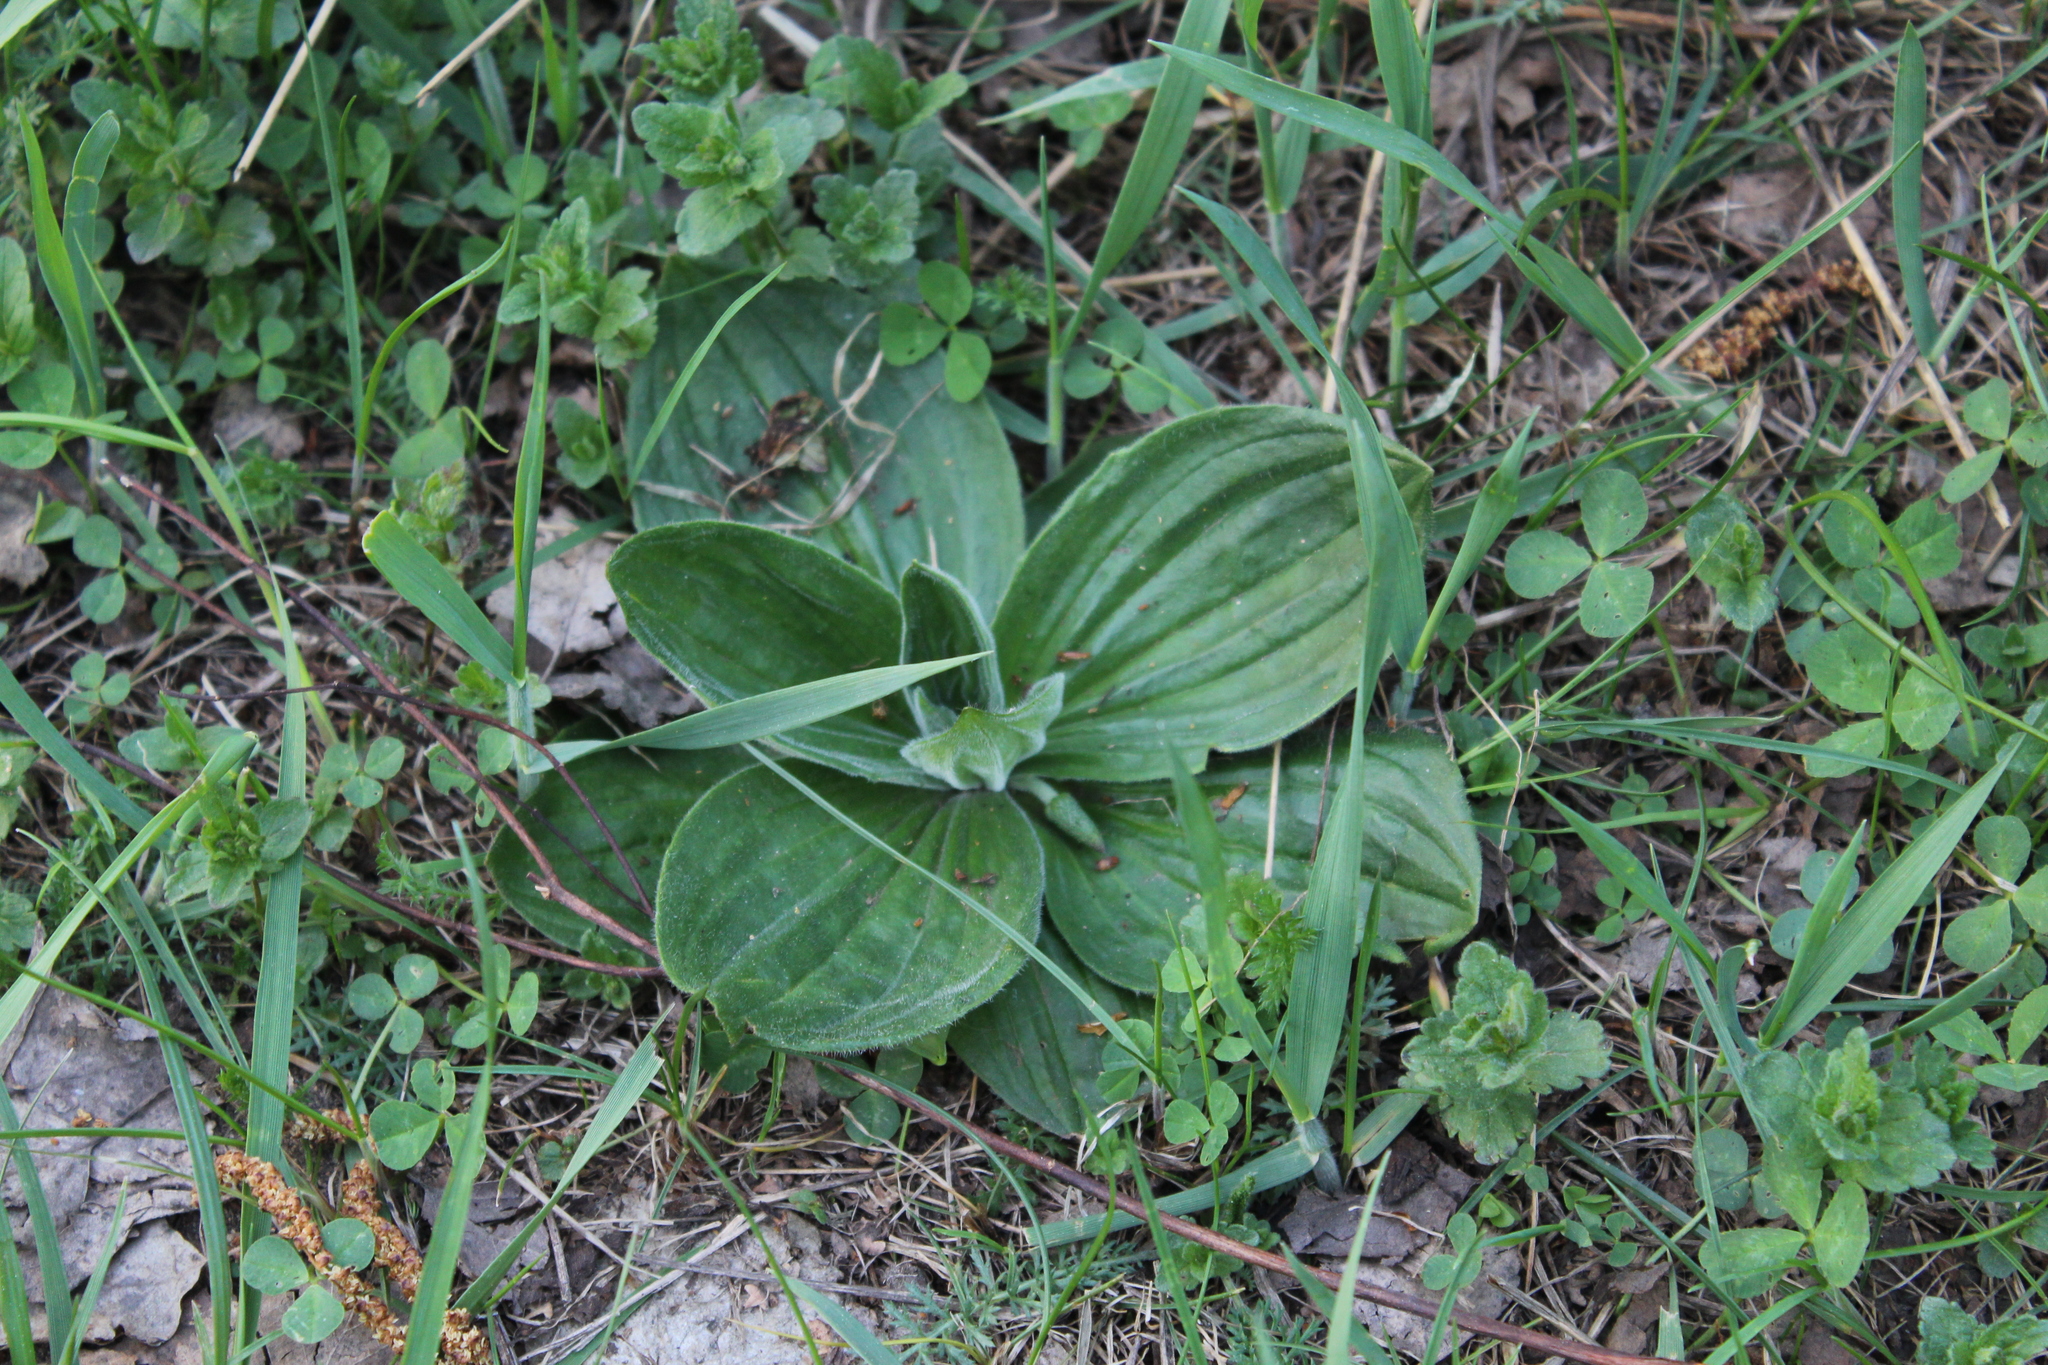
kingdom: Plantae
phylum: Tracheophyta
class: Magnoliopsida
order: Lamiales
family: Plantaginaceae
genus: Plantago
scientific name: Plantago media
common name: Hoary plantain
